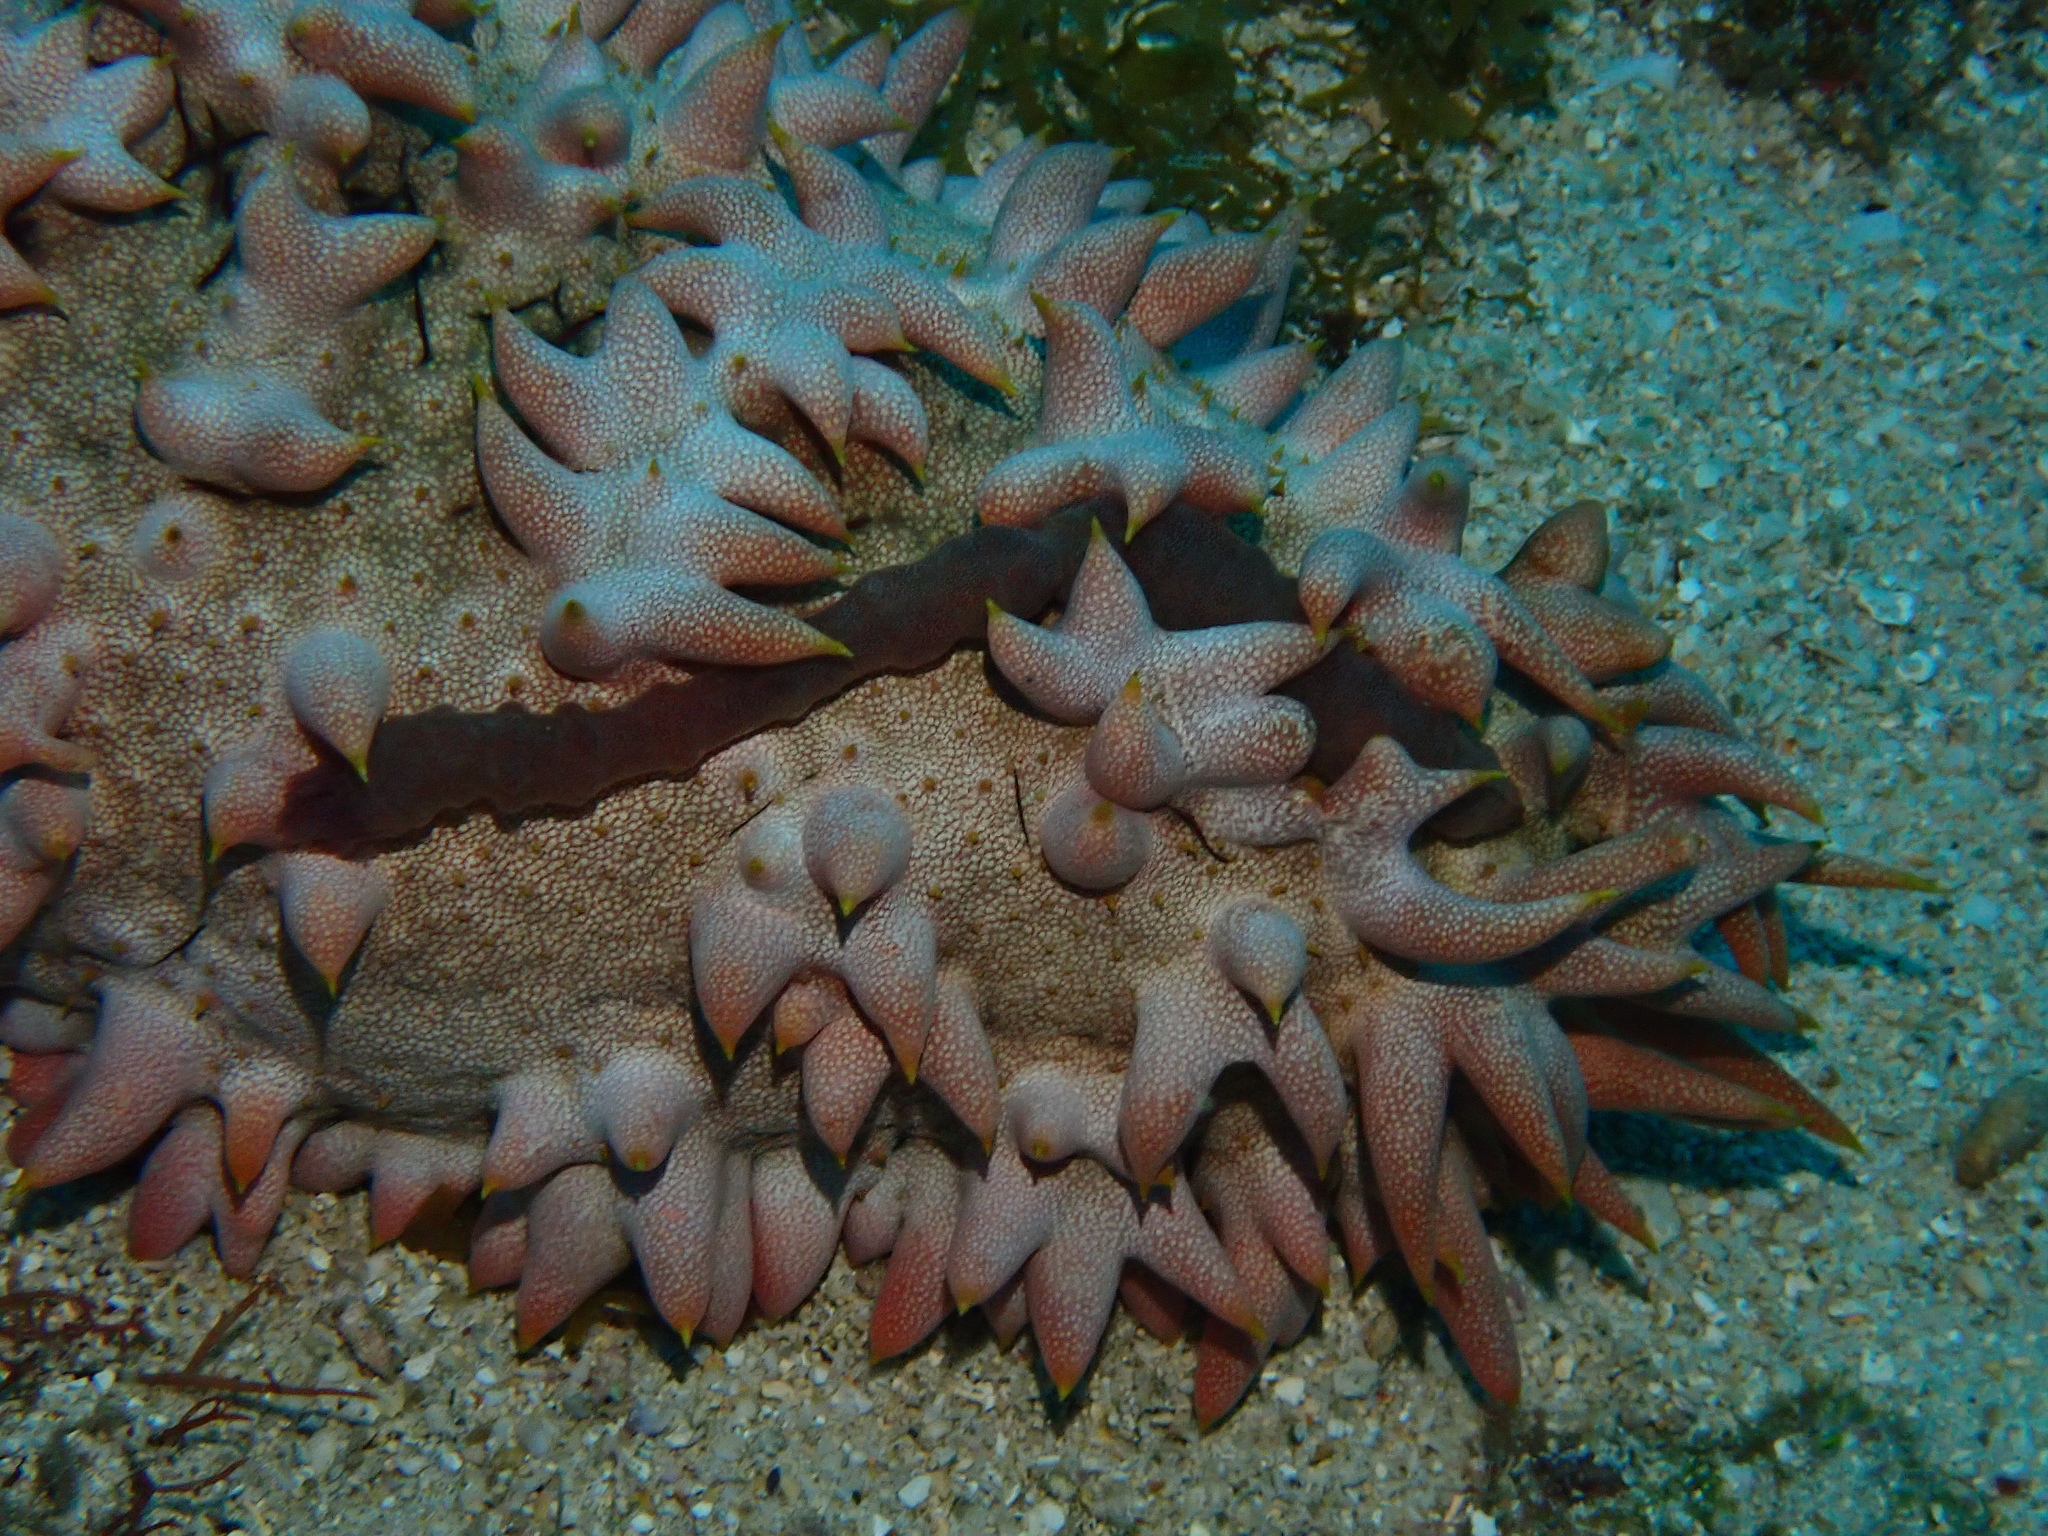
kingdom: Animalia
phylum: Echinodermata
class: Holothuroidea
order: Synallactida
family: Stichopodidae
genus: Thelenota
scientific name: Thelenota ananas
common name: Prickly redfish
